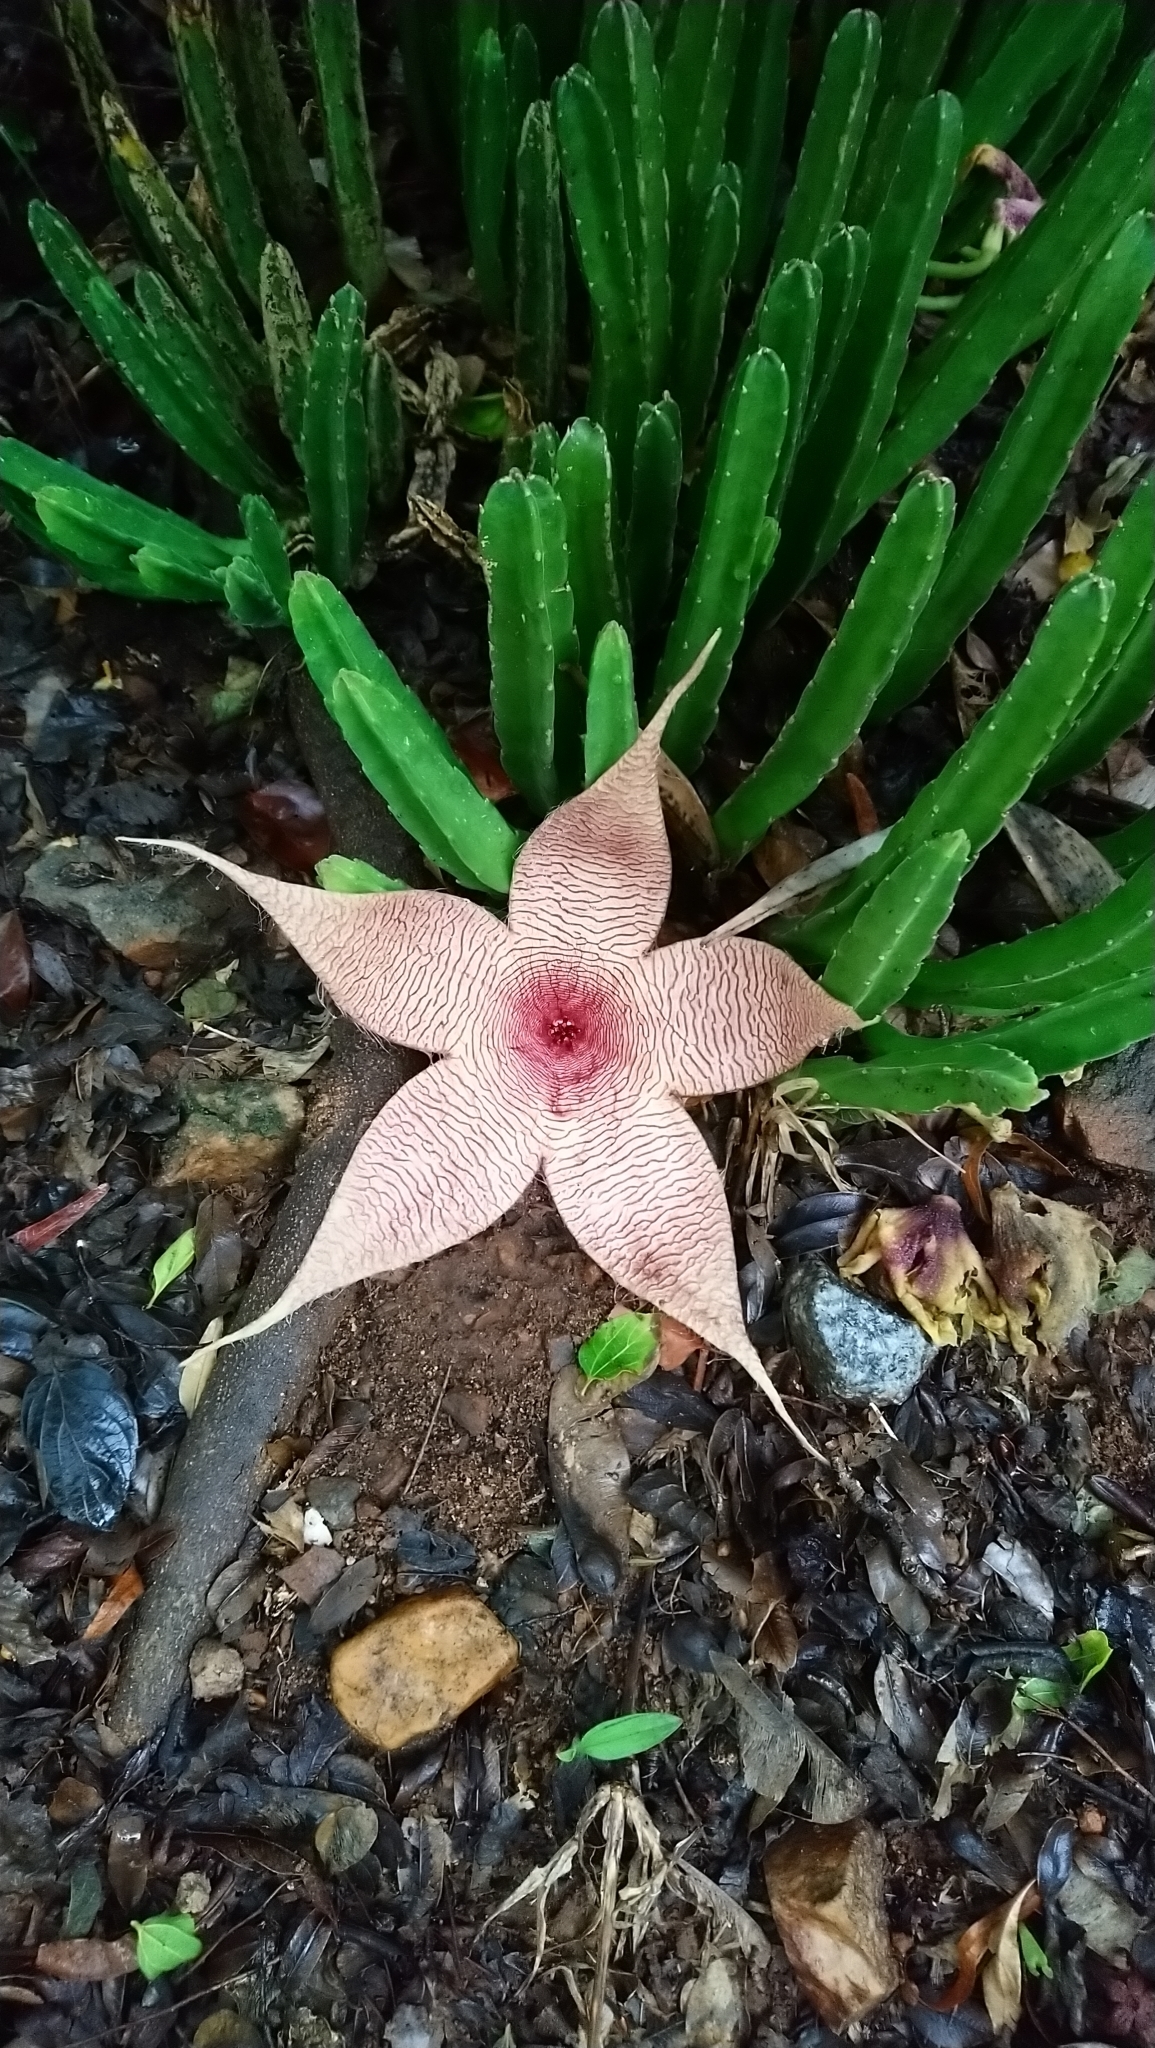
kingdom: Plantae
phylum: Tracheophyta
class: Magnoliopsida
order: Gentianales
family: Apocynaceae
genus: Ceropegia
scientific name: Ceropegia gigantea
